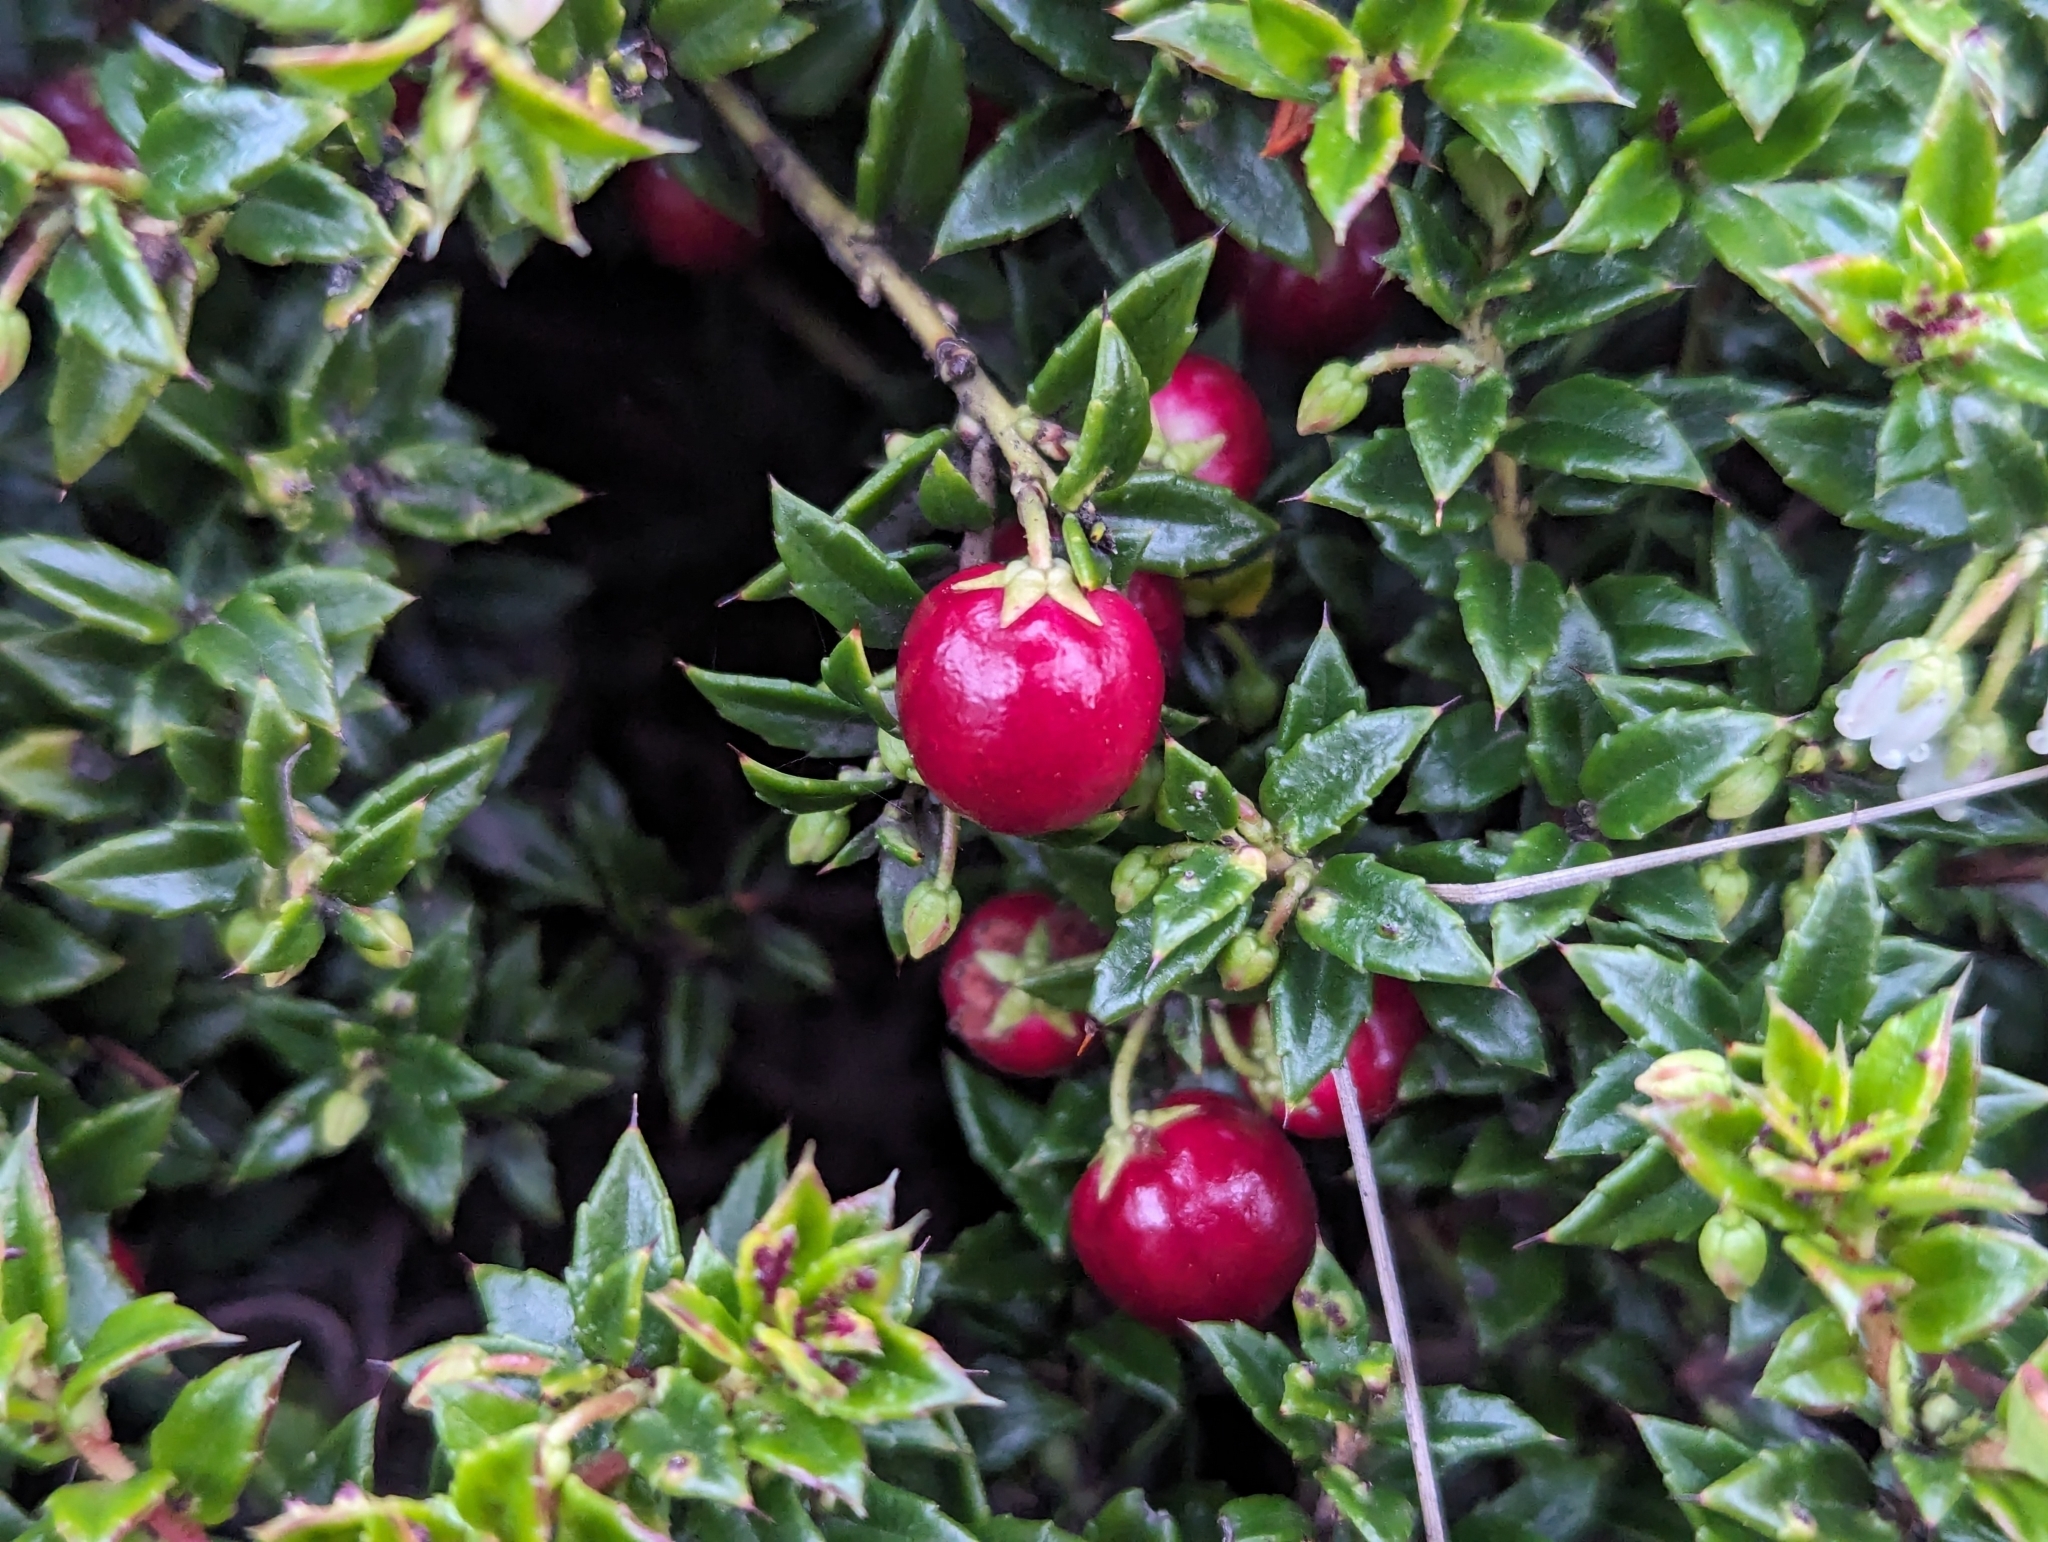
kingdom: Plantae
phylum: Tracheophyta
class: Magnoliopsida
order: Ericales
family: Ericaceae
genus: Gaultheria
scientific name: Gaultheria mucronata
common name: Prickly heath
